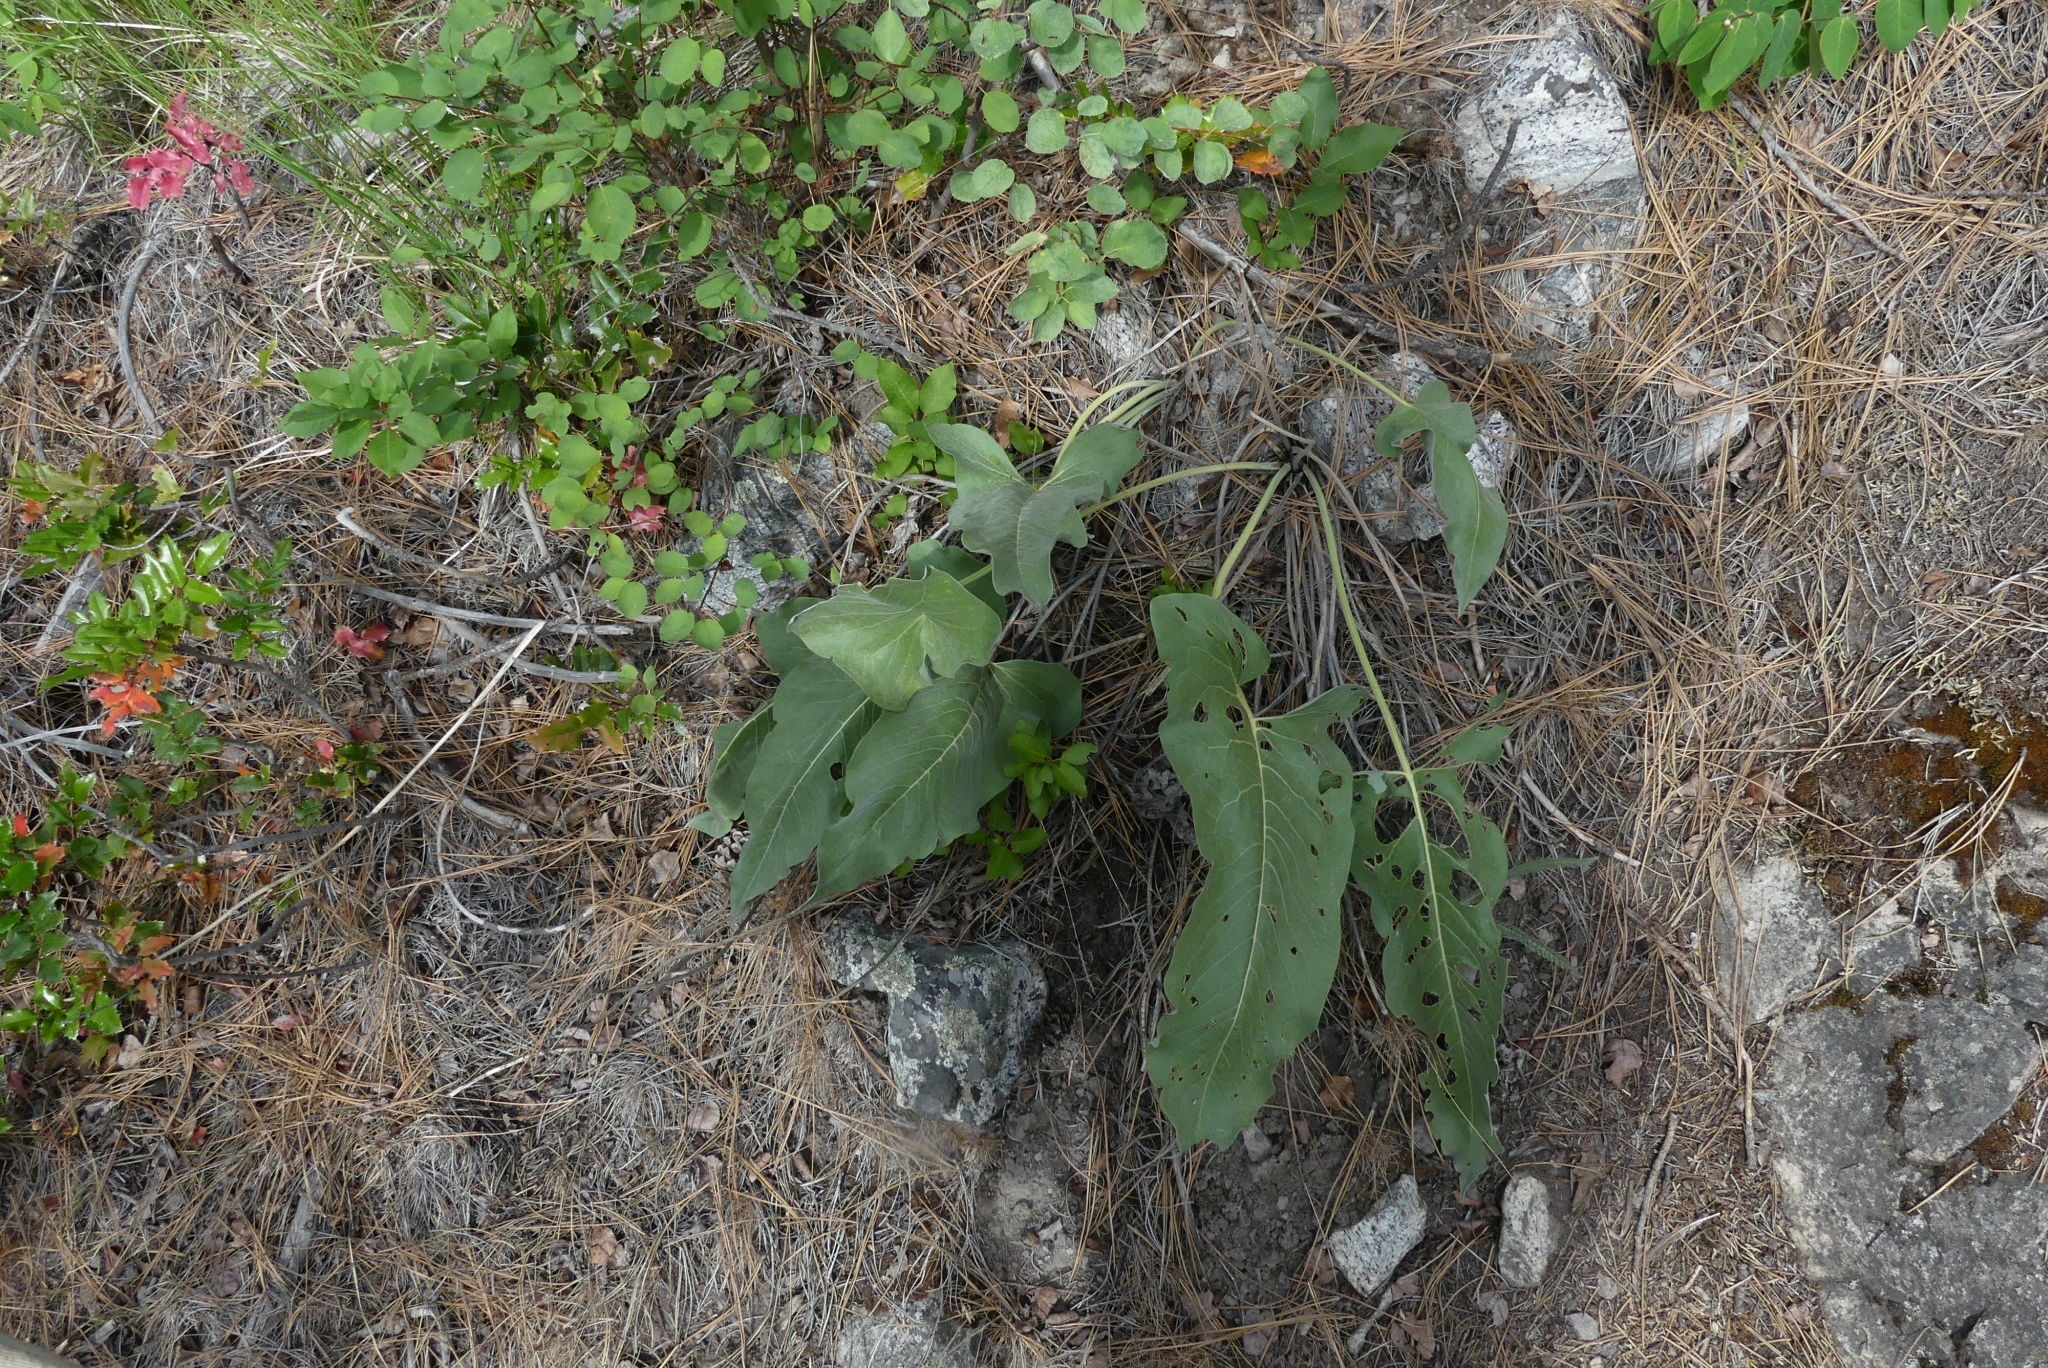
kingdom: Plantae
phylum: Tracheophyta
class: Magnoliopsida
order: Asterales
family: Asteraceae
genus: Wyethia
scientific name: Wyethia sagittata
